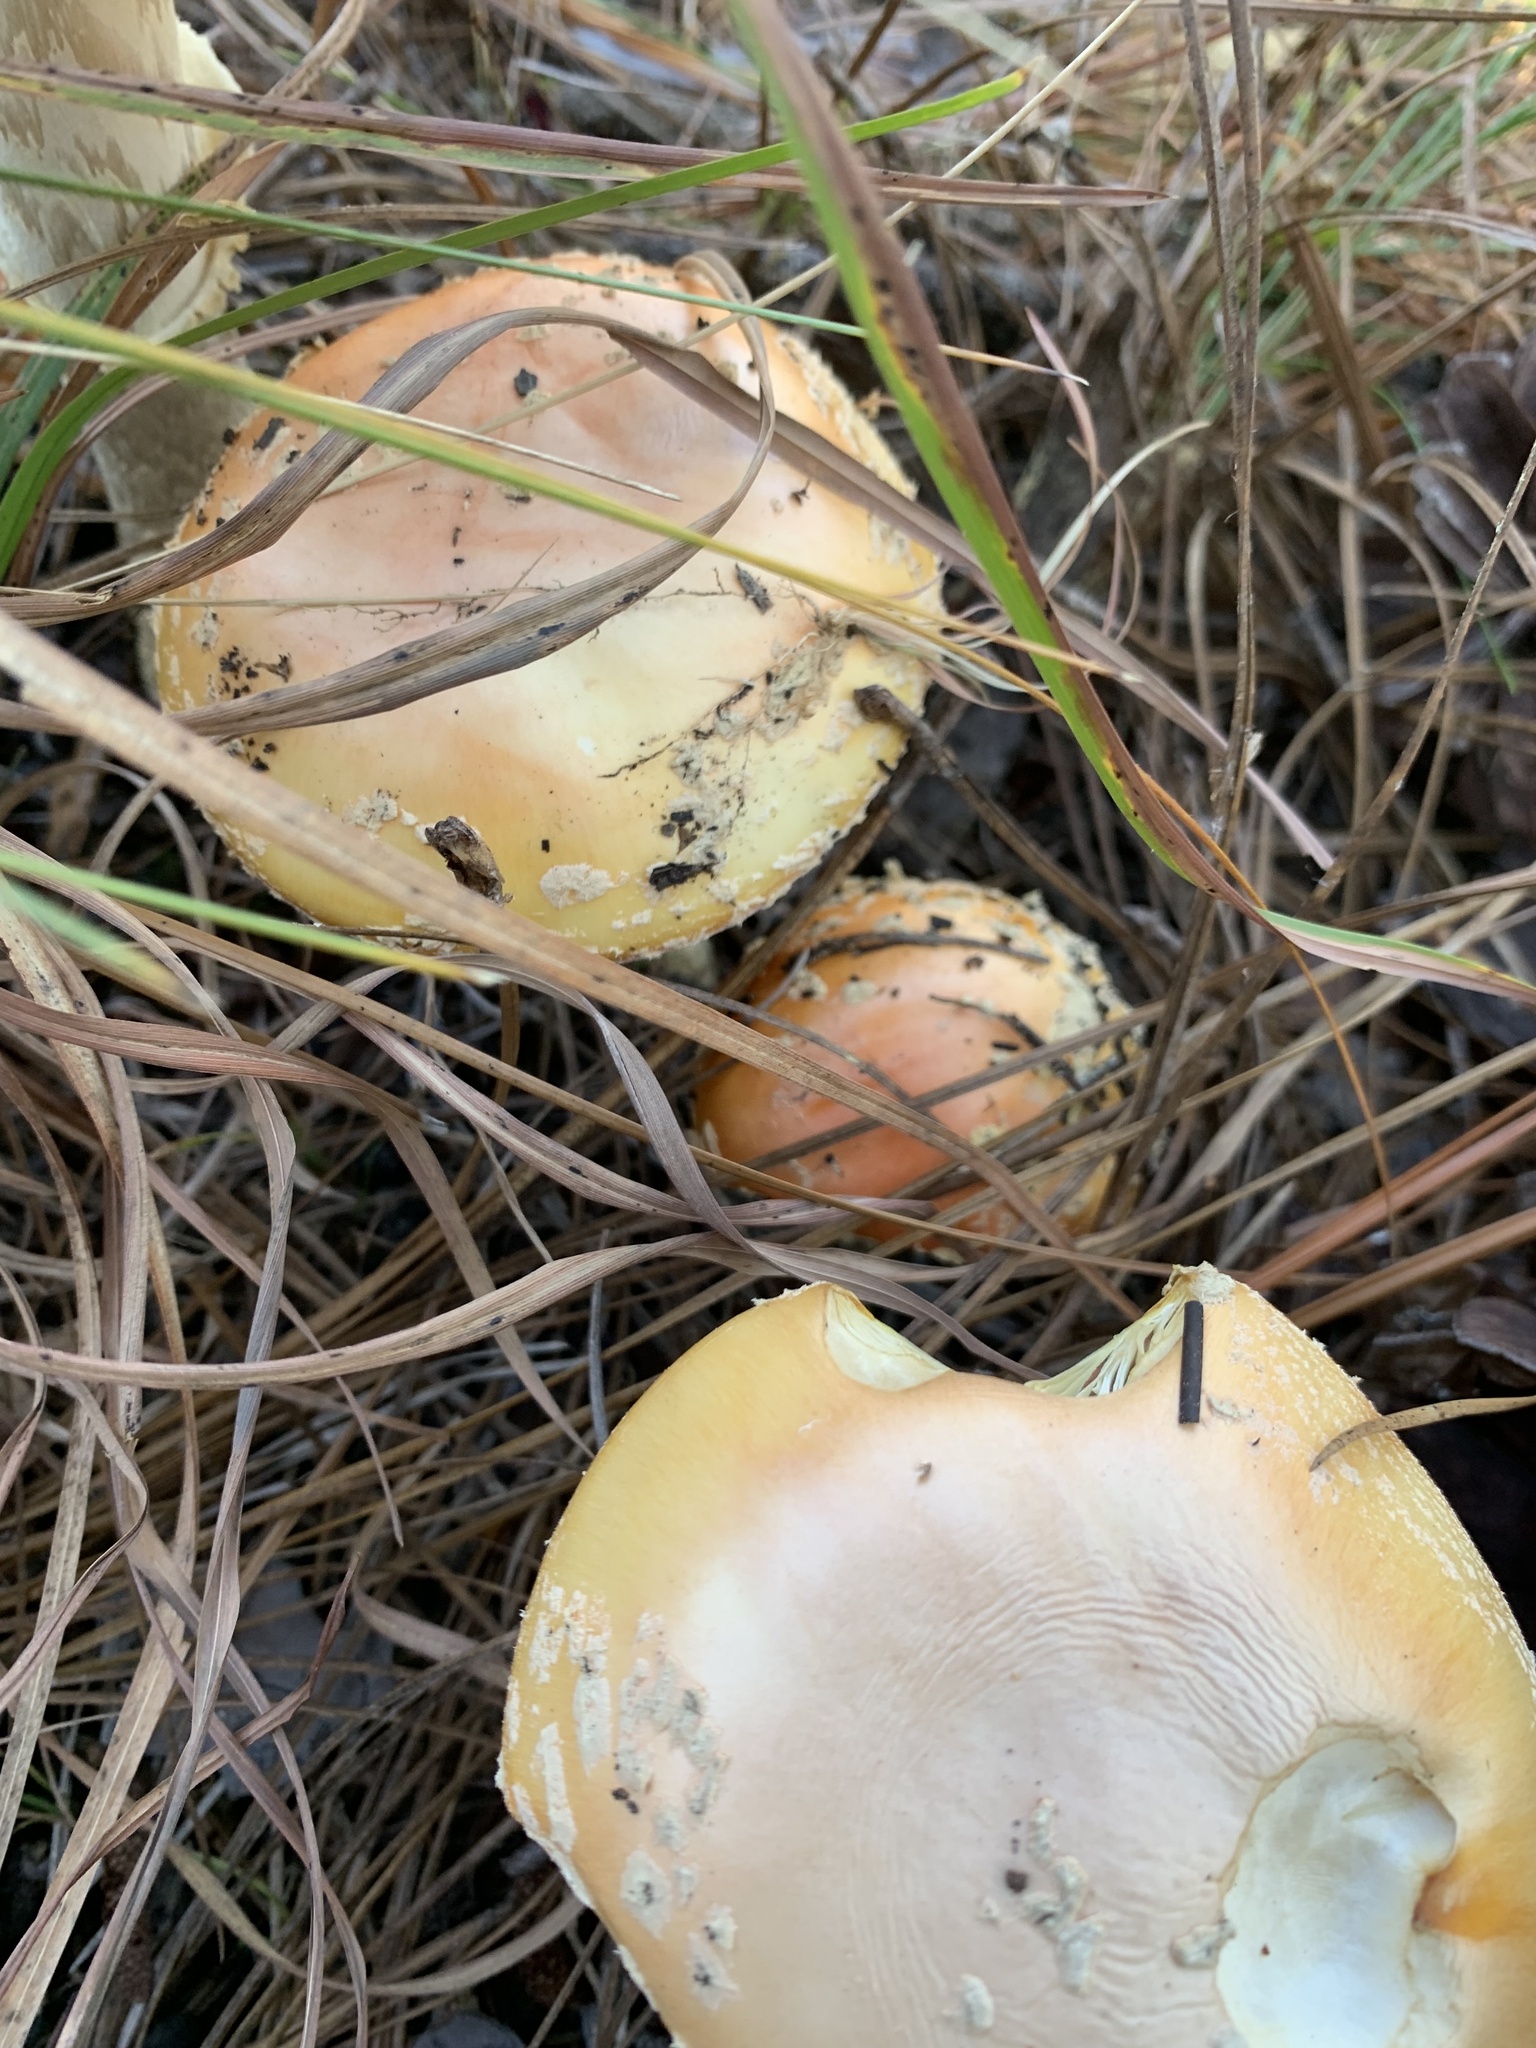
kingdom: Fungi
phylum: Basidiomycota
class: Agaricomycetes
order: Agaricales
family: Amanitaceae
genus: Amanita
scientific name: Amanita persicina
